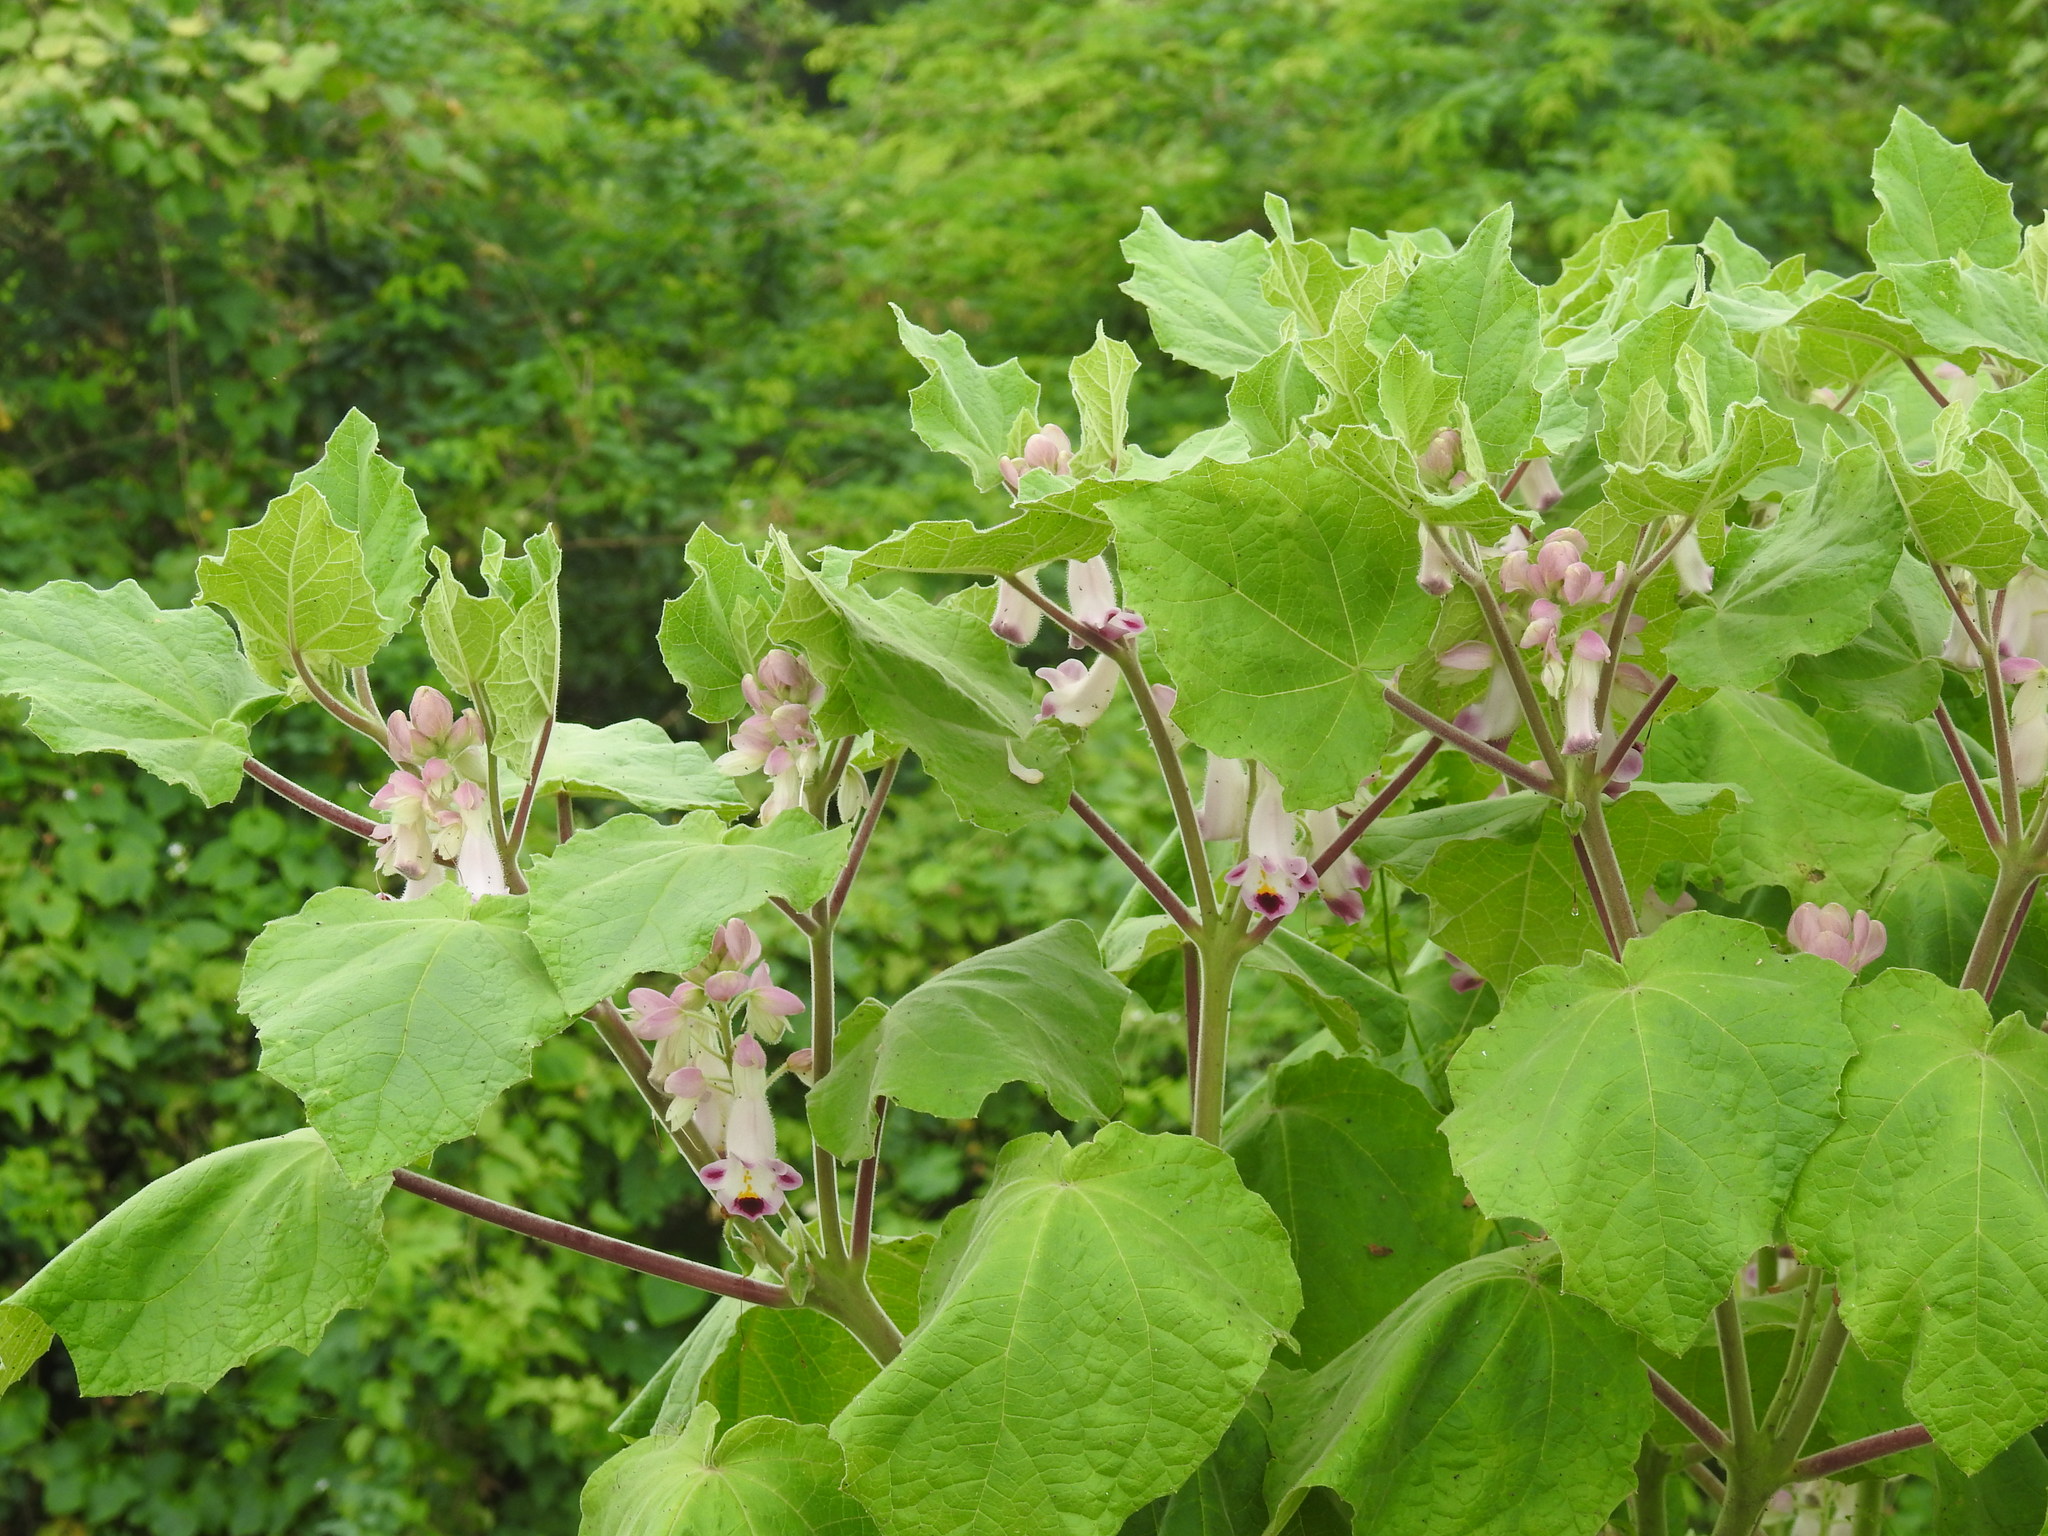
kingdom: Plantae
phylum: Tracheophyta
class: Magnoliopsida
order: Lamiales
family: Martyniaceae
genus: Martynia
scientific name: Martynia annua
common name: Tiger's-claw
